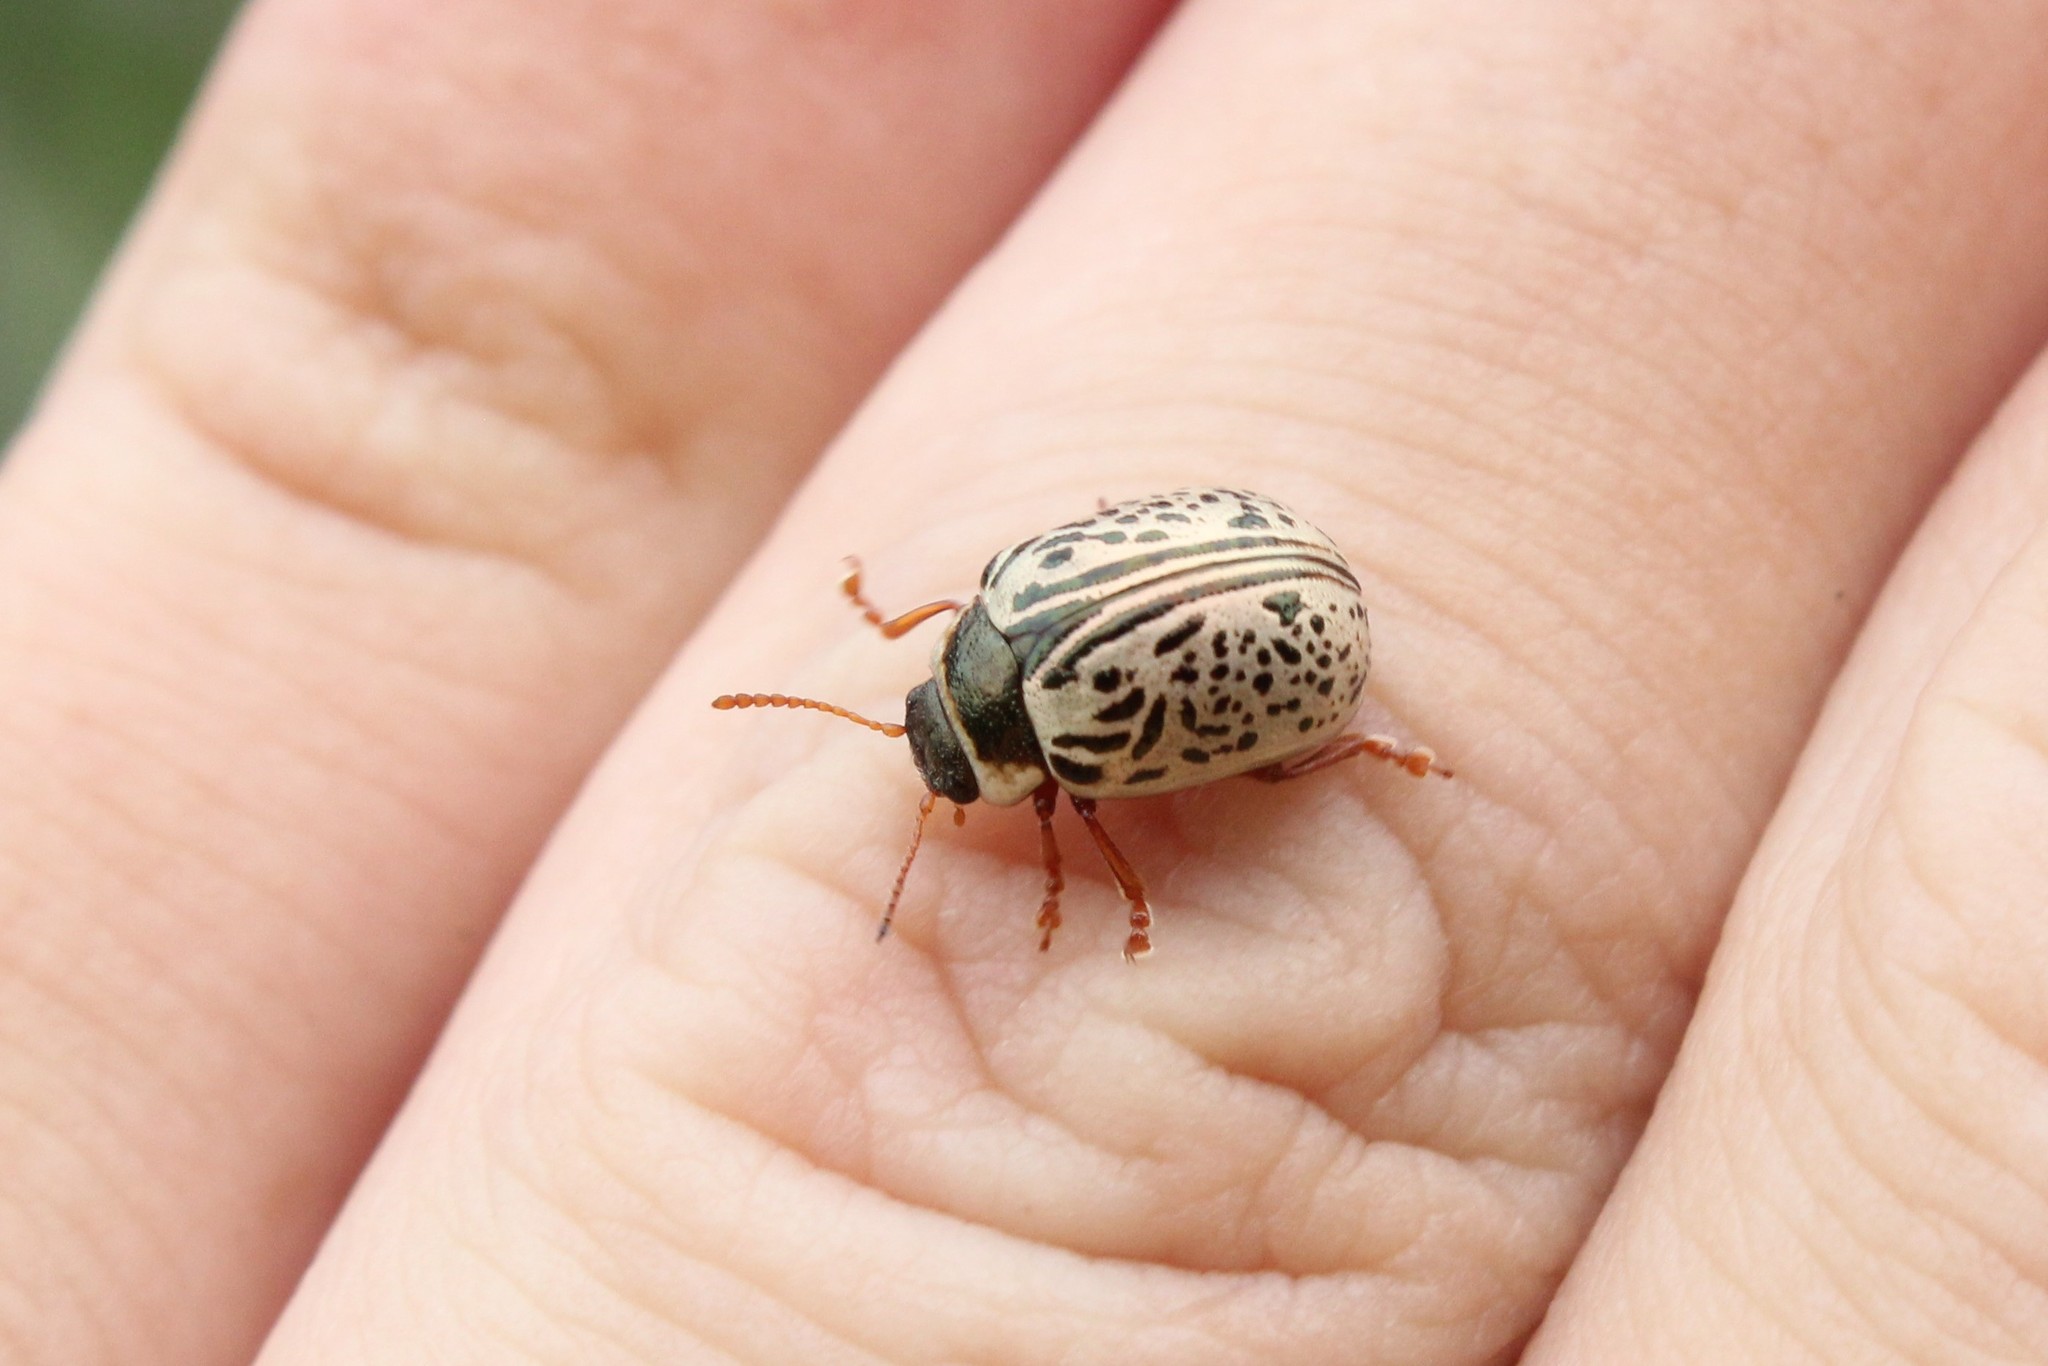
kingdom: Animalia
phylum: Arthropoda
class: Insecta
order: Coleoptera
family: Chrysomelidae
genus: Calligrapha
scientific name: Calligrapha multipunctata
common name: Common willow calligrapher beetle
